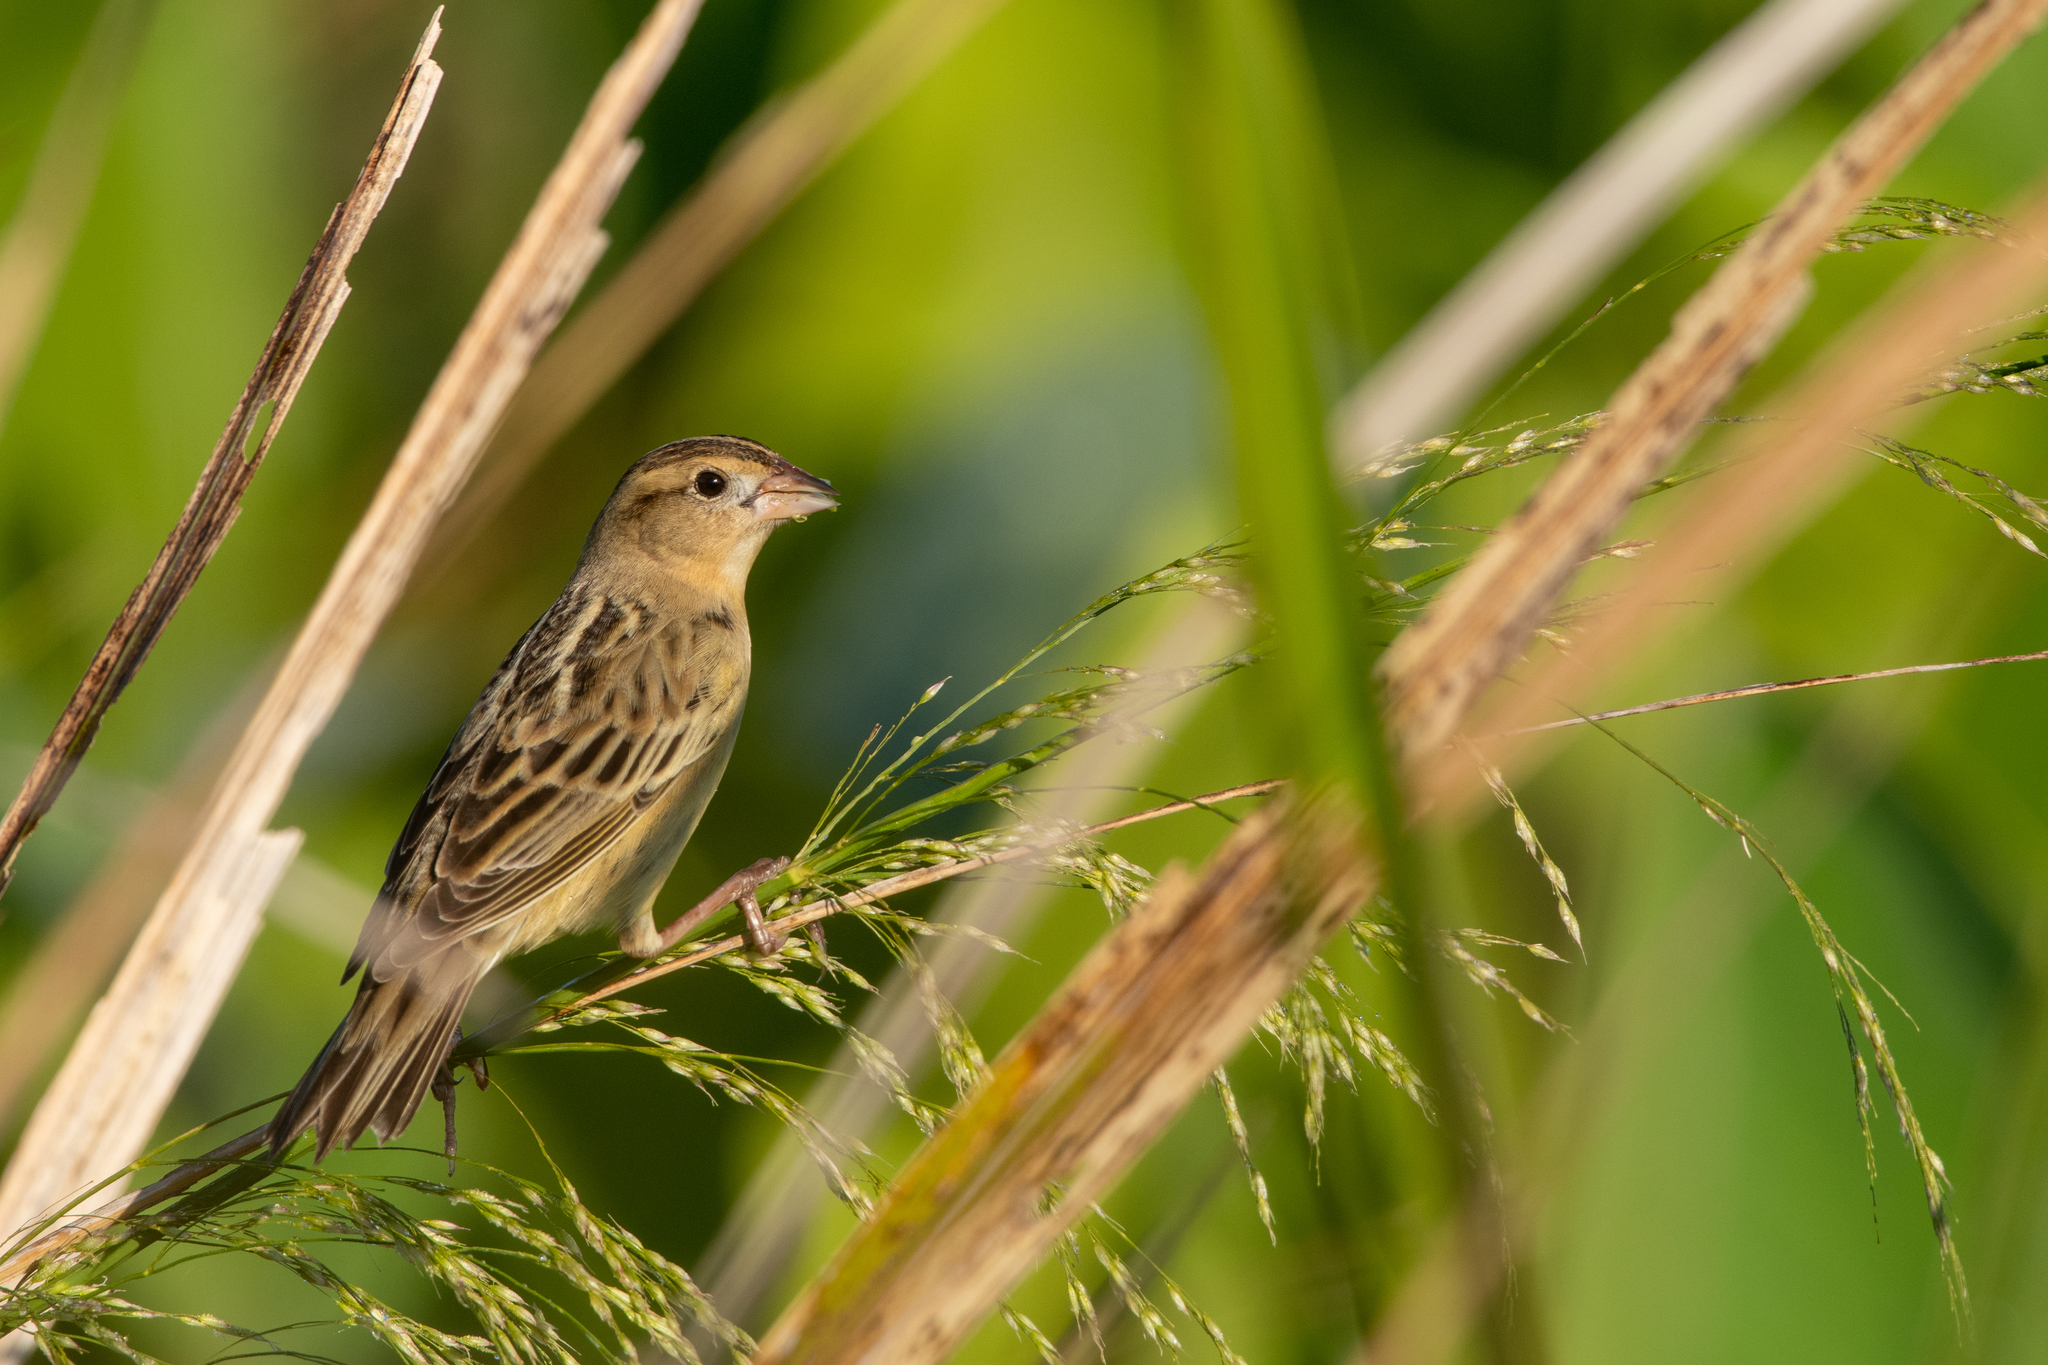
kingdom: Animalia
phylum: Chordata
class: Aves
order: Passeriformes
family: Icteridae
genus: Dolichonyx
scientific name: Dolichonyx oryzivorus
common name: Bobolink
